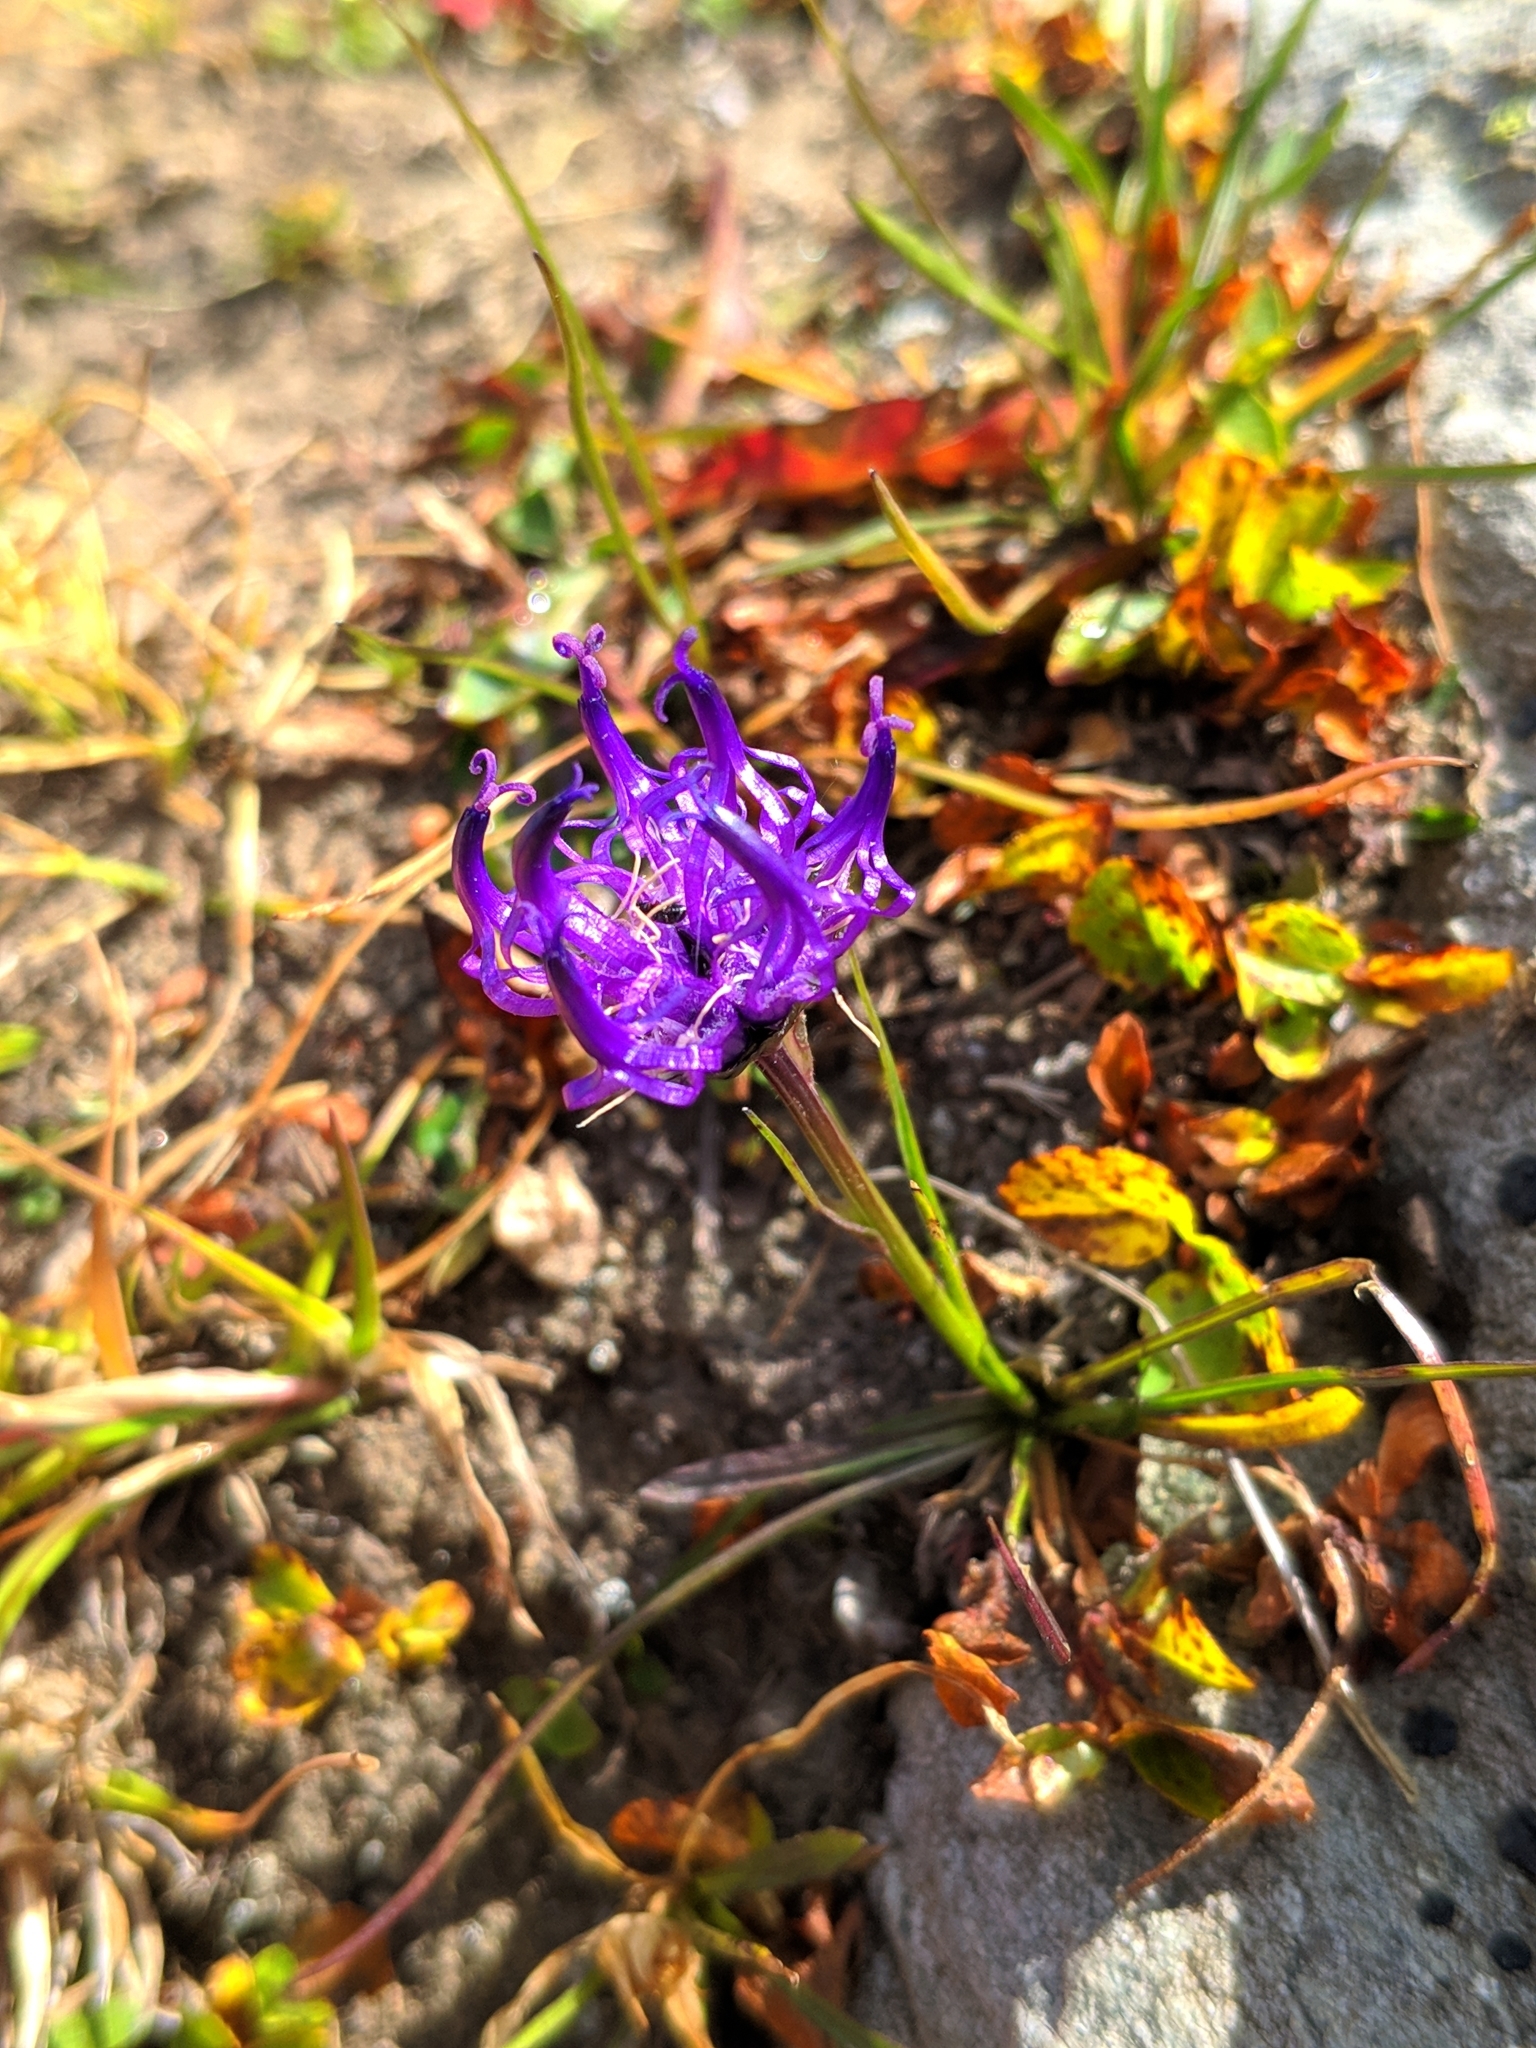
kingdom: Plantae
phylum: Tracheophyta
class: Magnoliopsida
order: Asterales
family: Campanulaceae
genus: Phyteuma
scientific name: Phyteuma hemisphaericum
